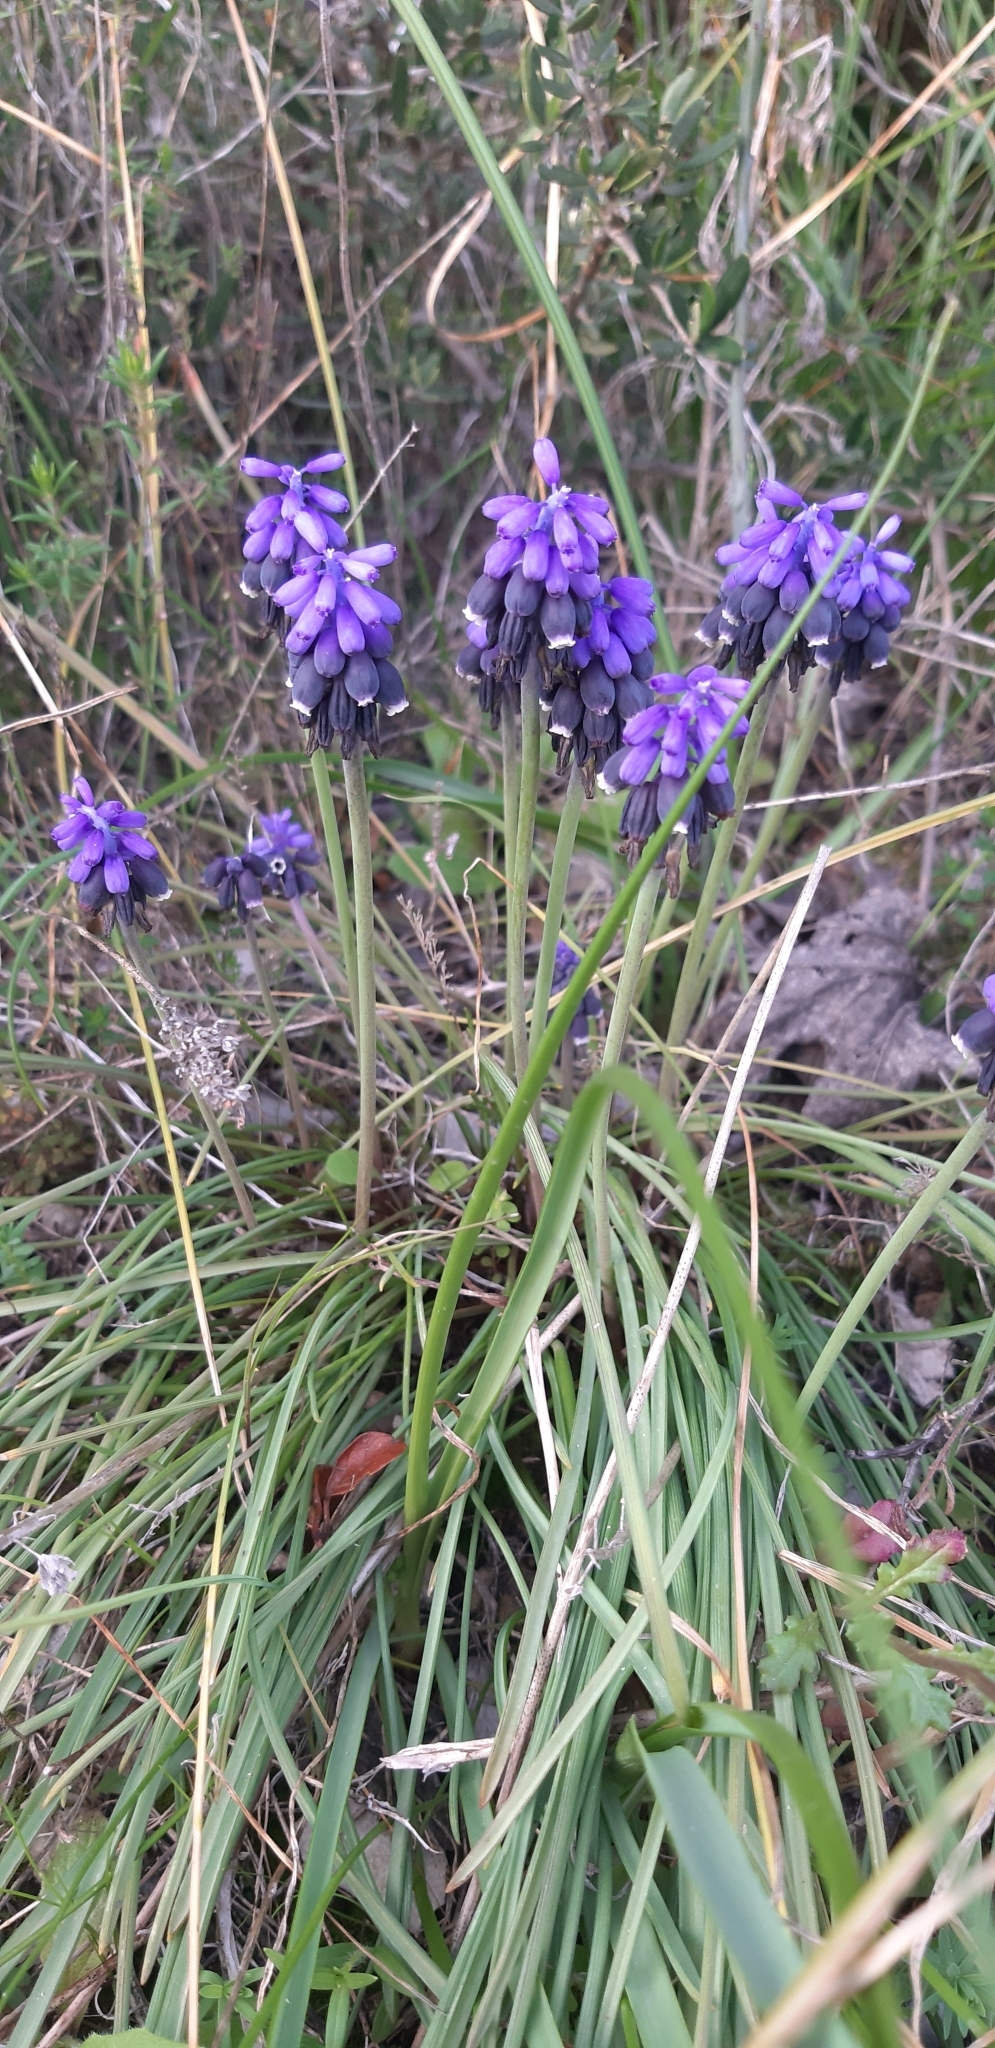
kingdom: Plantae
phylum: Tracheophyta
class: Liliopsida
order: Asparagales
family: Asparagaceae
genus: Muscari
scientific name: Muscari neglectum
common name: Grape-hyacinth
